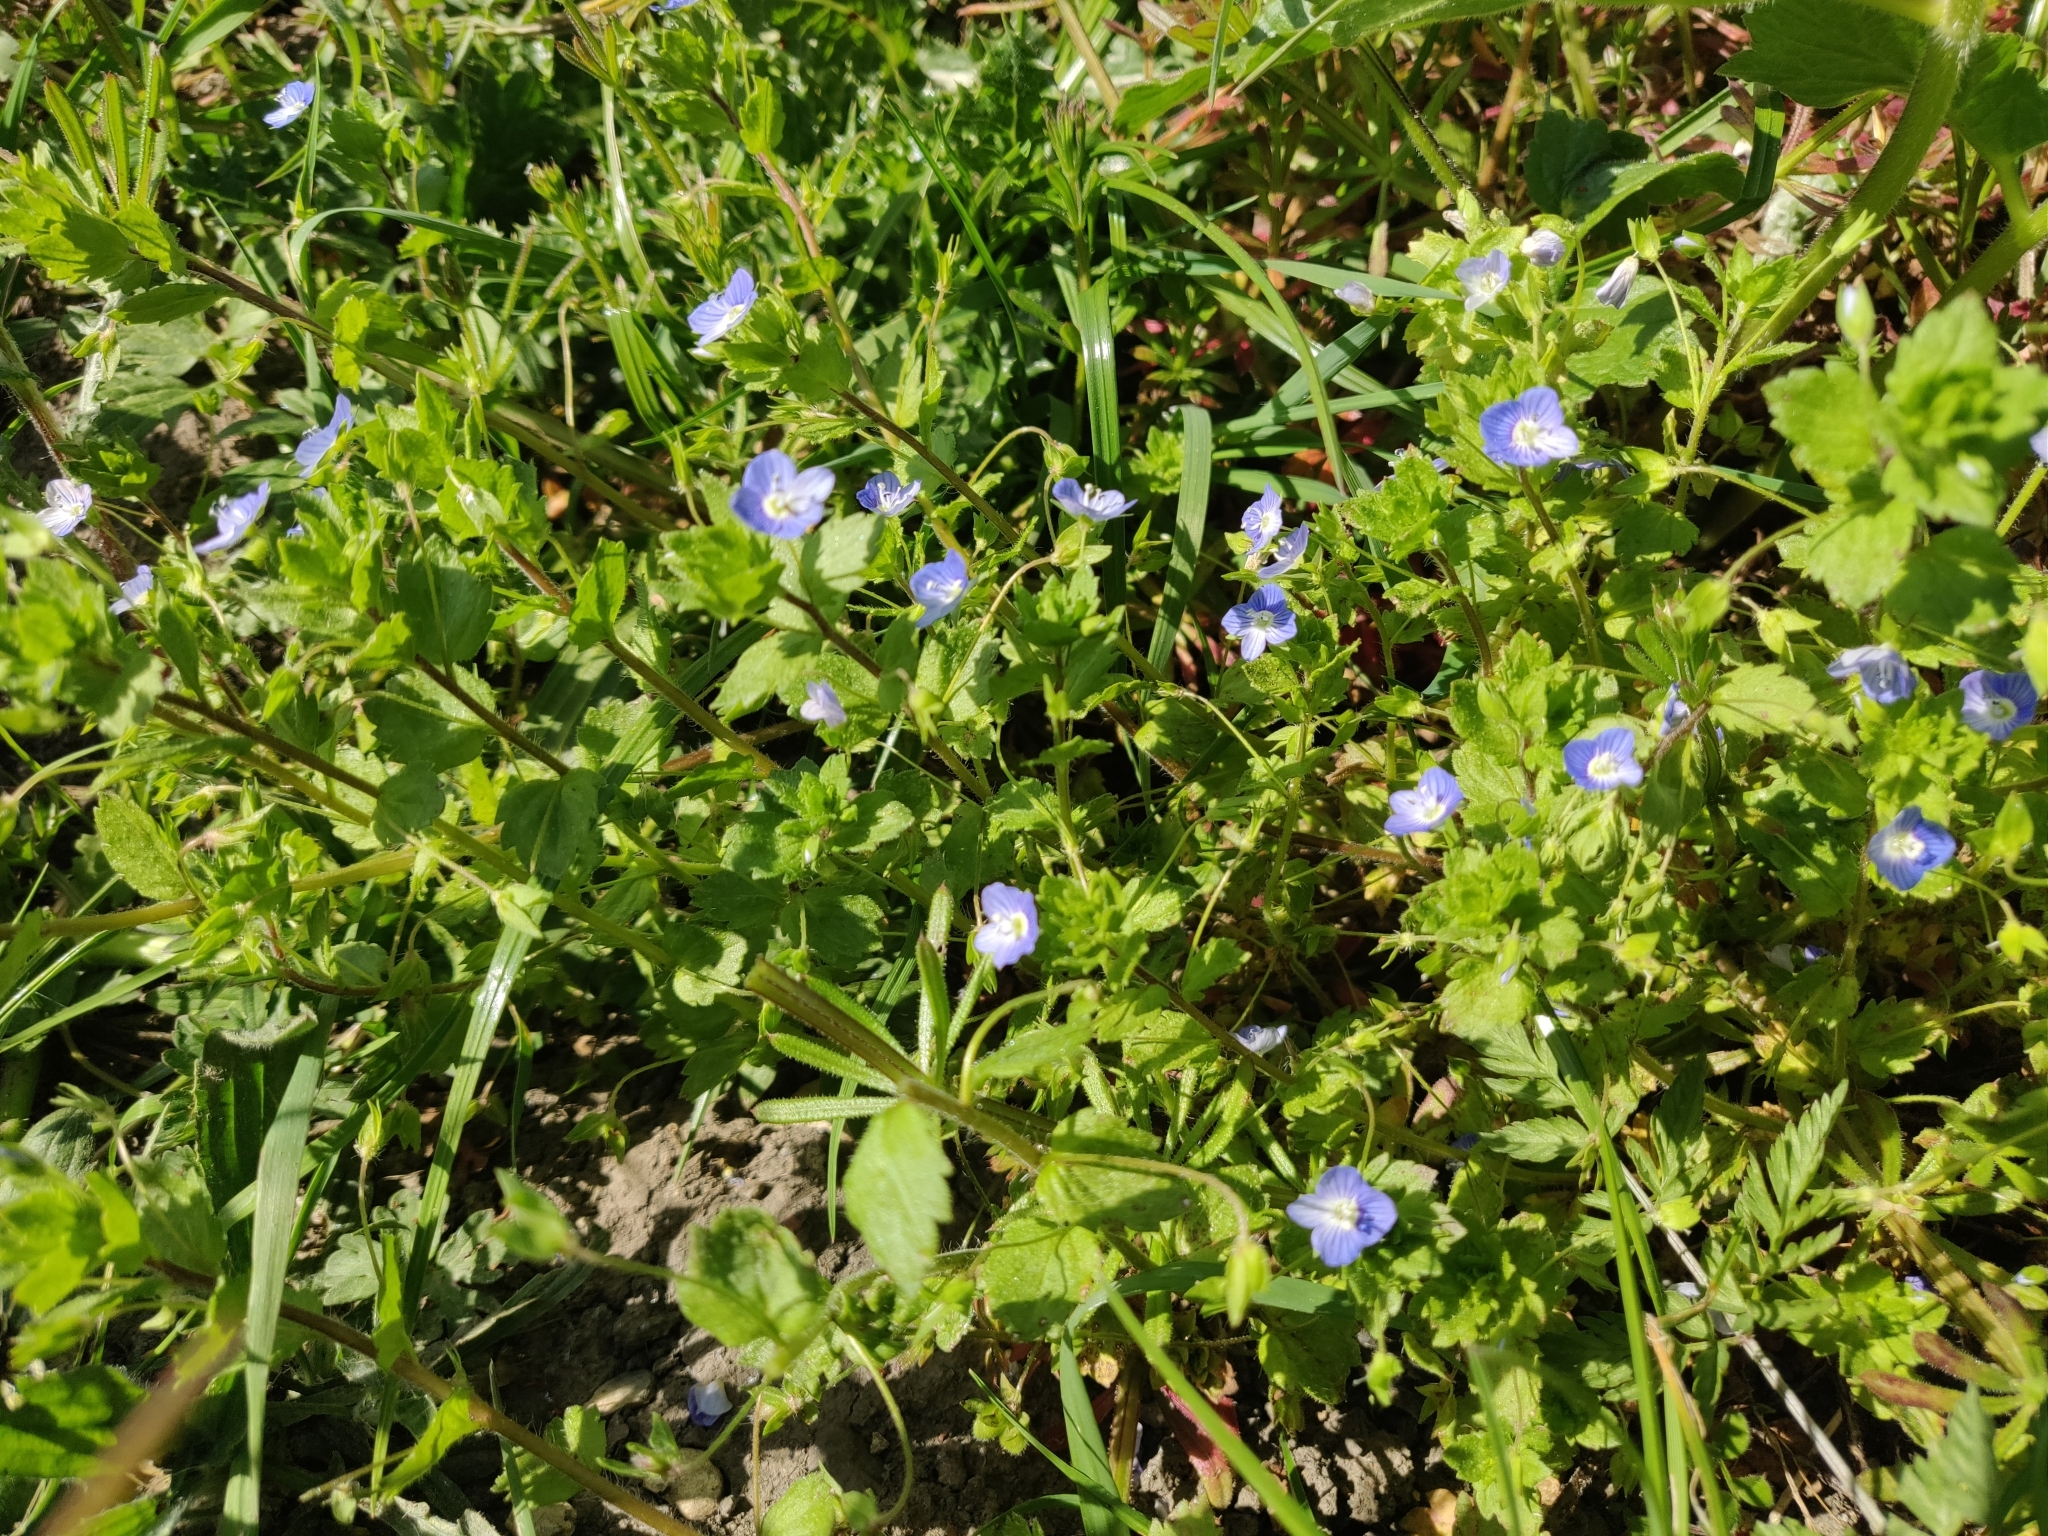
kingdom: Plantae
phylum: Tracheophyta
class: Magnoliopsida
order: Lamiales
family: Plantaginaceae
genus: Veronica
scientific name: Veronica persica
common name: Common field-speedwell
